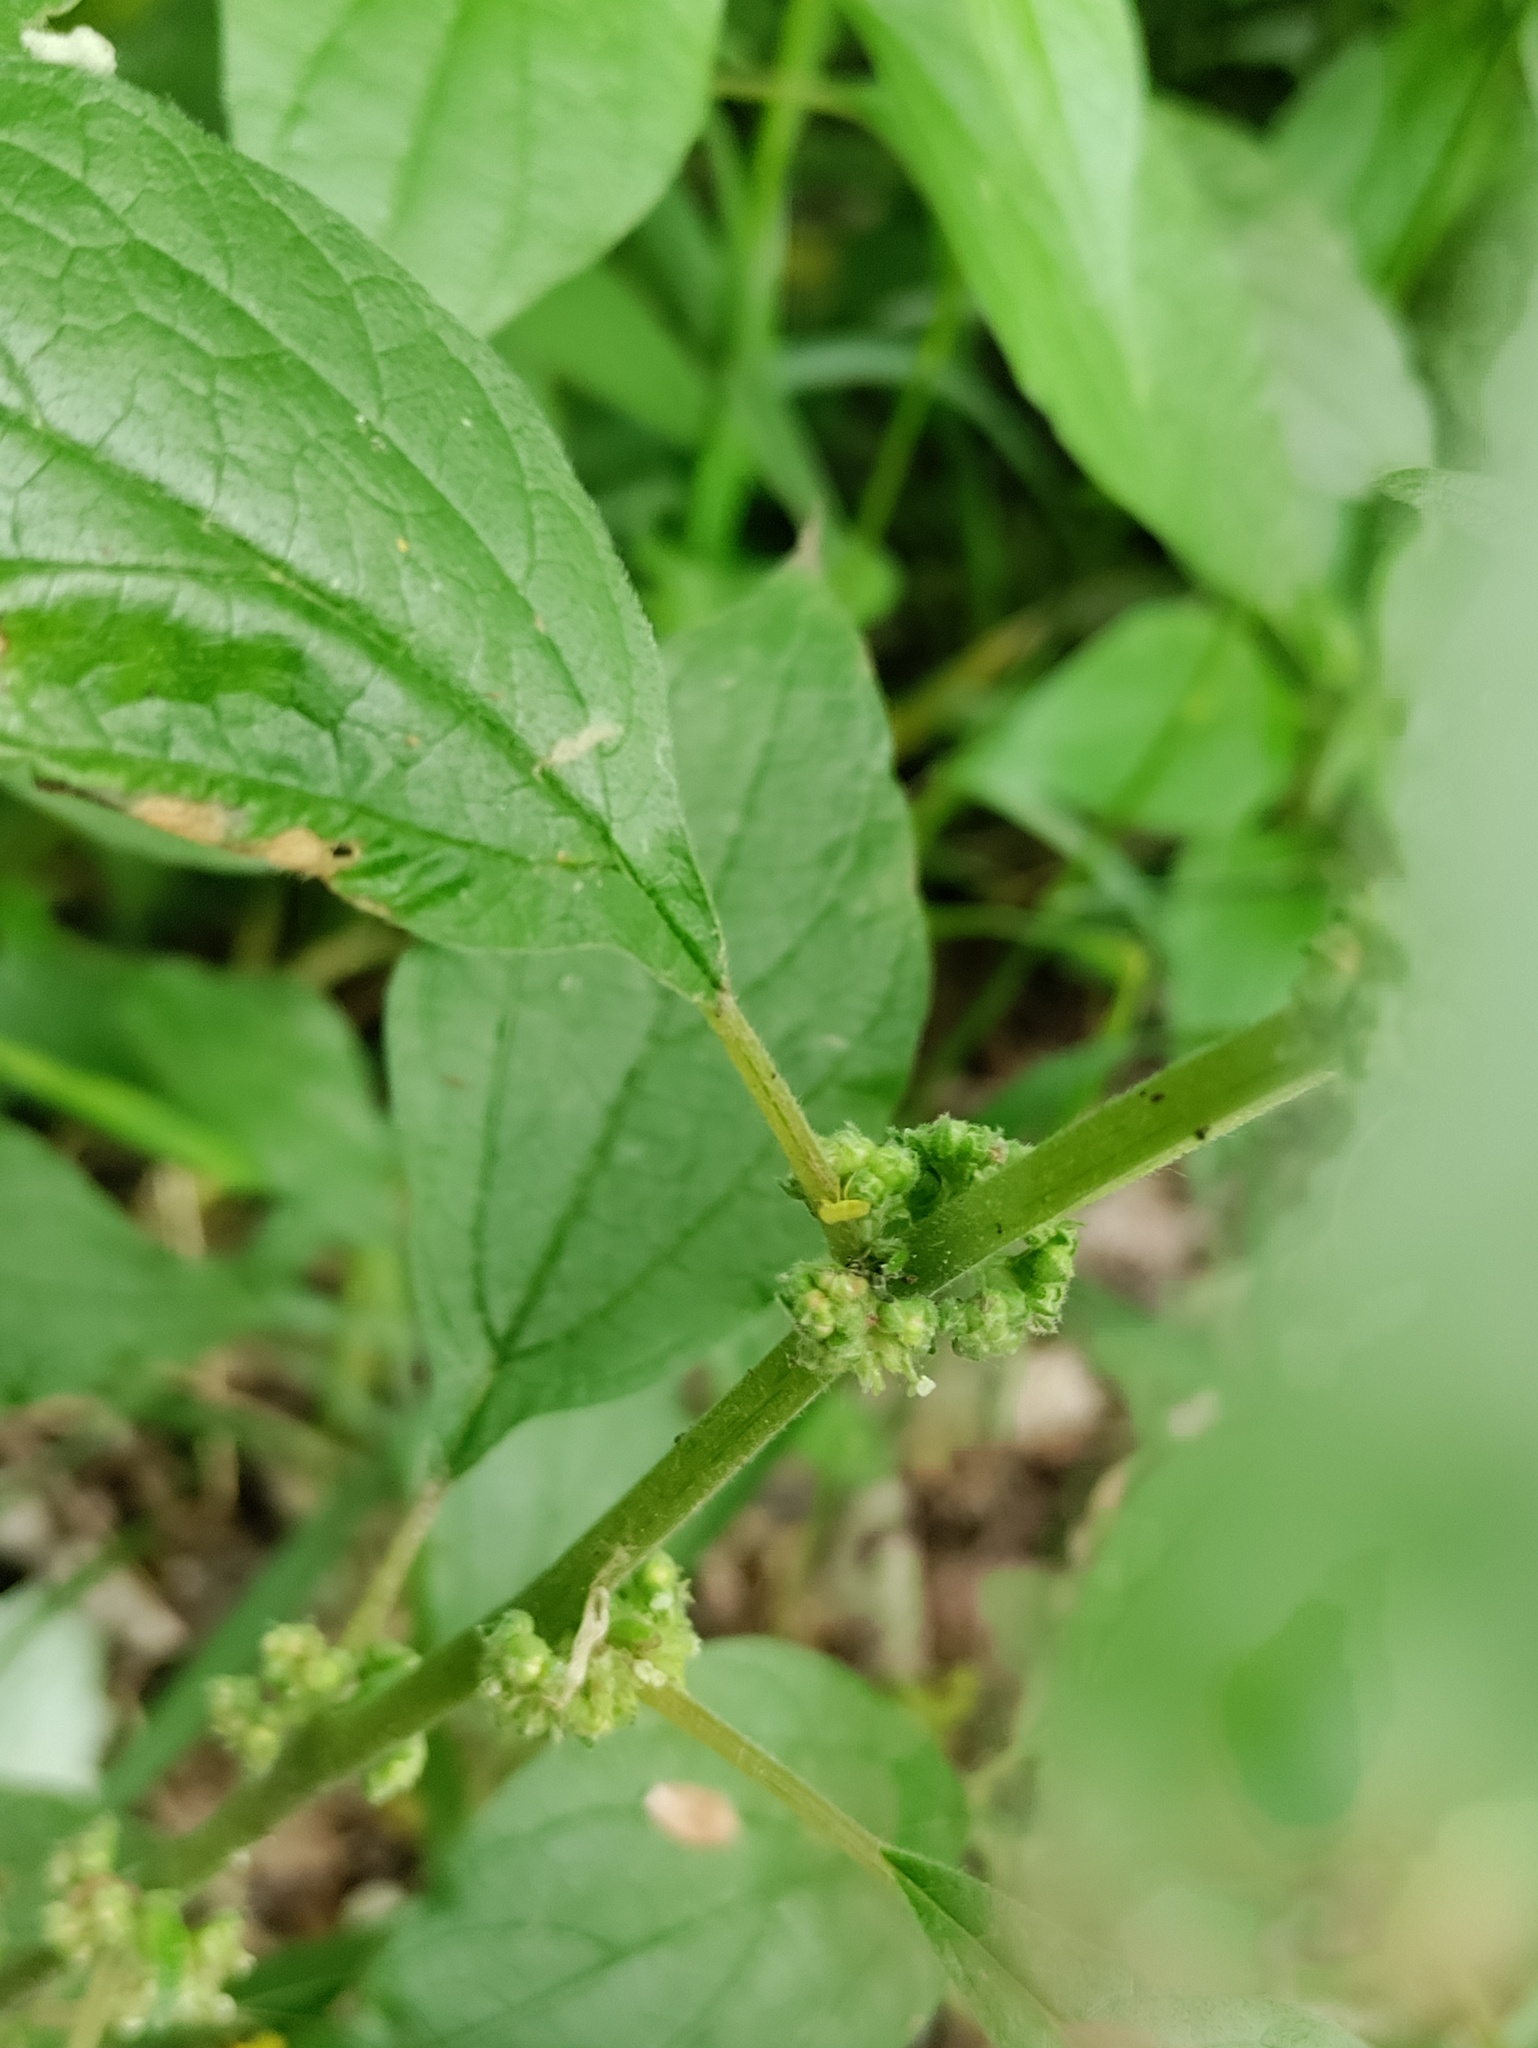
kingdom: Plantae
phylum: Tracheophyta
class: Magnoliopsida
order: Rosales
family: Urticaceae
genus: Parietaria
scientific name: Parietaria officinalis
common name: Eastern pellitory-of-the-wall
